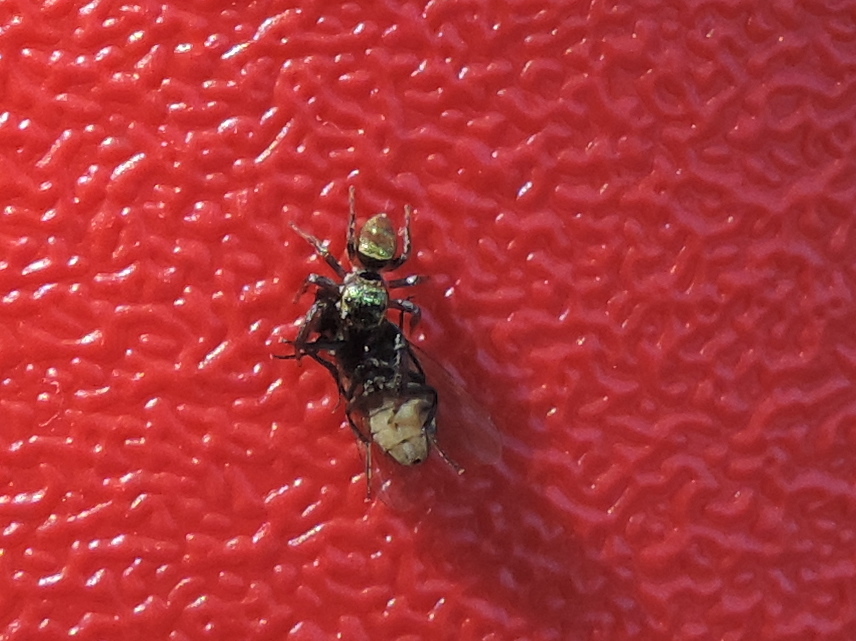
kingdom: Animalia
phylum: Arthropoda
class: Arachnida
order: Araneae
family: Salticidae
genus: Sassacus
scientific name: Sassacus
